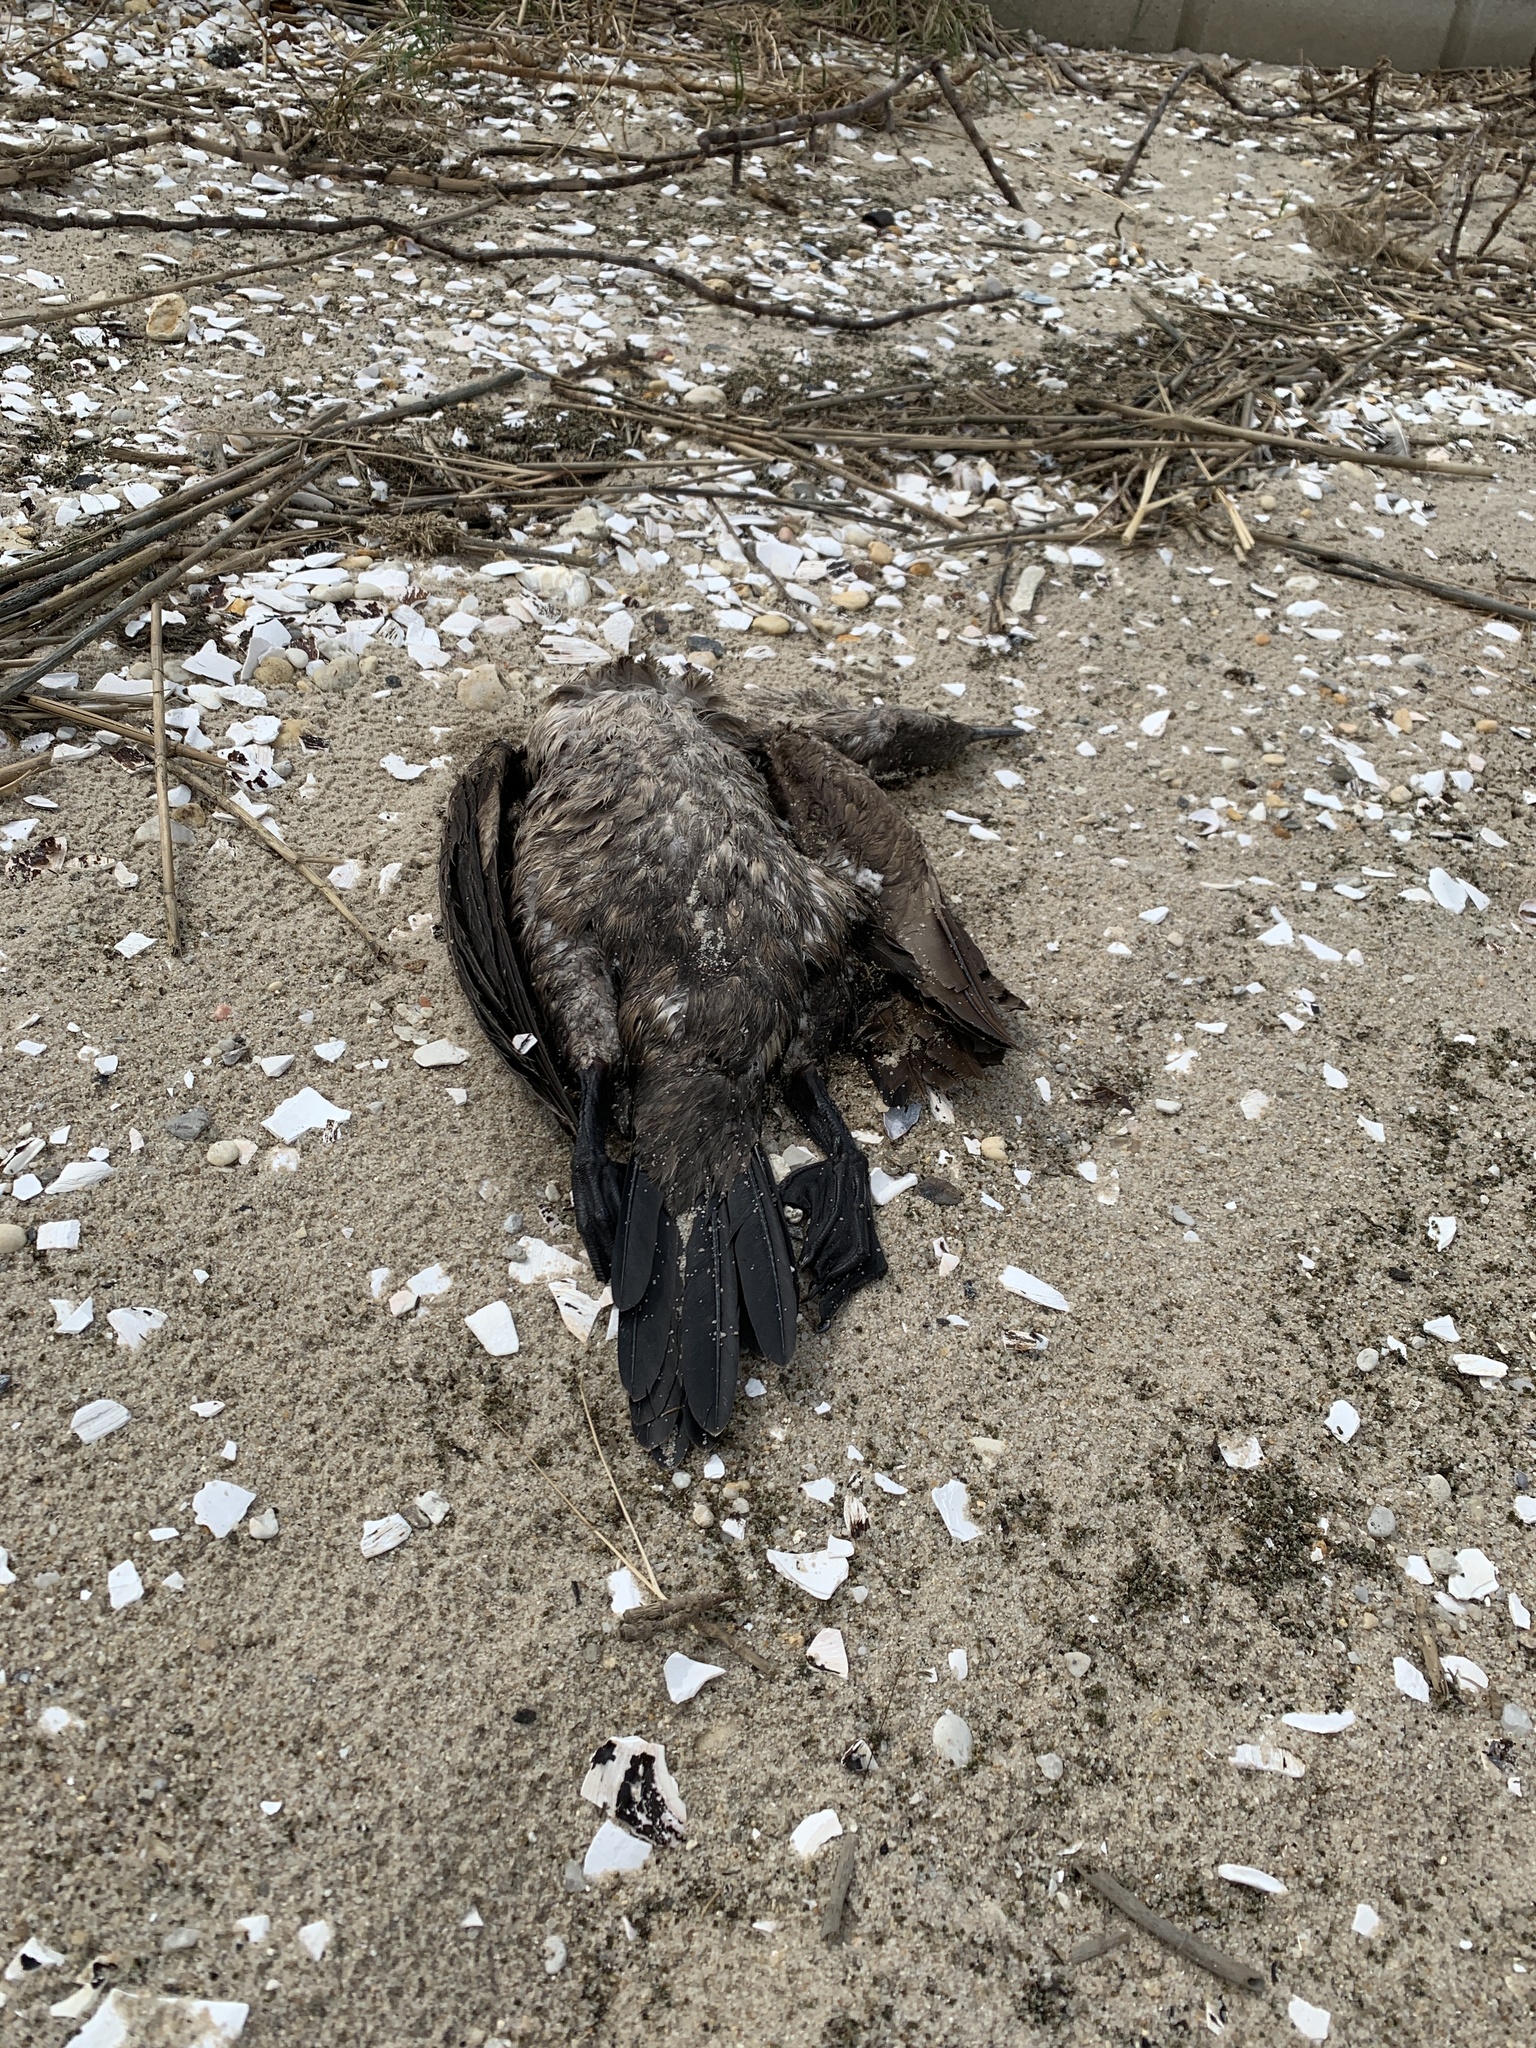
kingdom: Animalia
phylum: Chordata
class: Aves
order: Suliformes
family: Phalacrocoracidae
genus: Phalacrocorax
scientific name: Phalacrocorax auritus
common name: Double-crested cormorant
